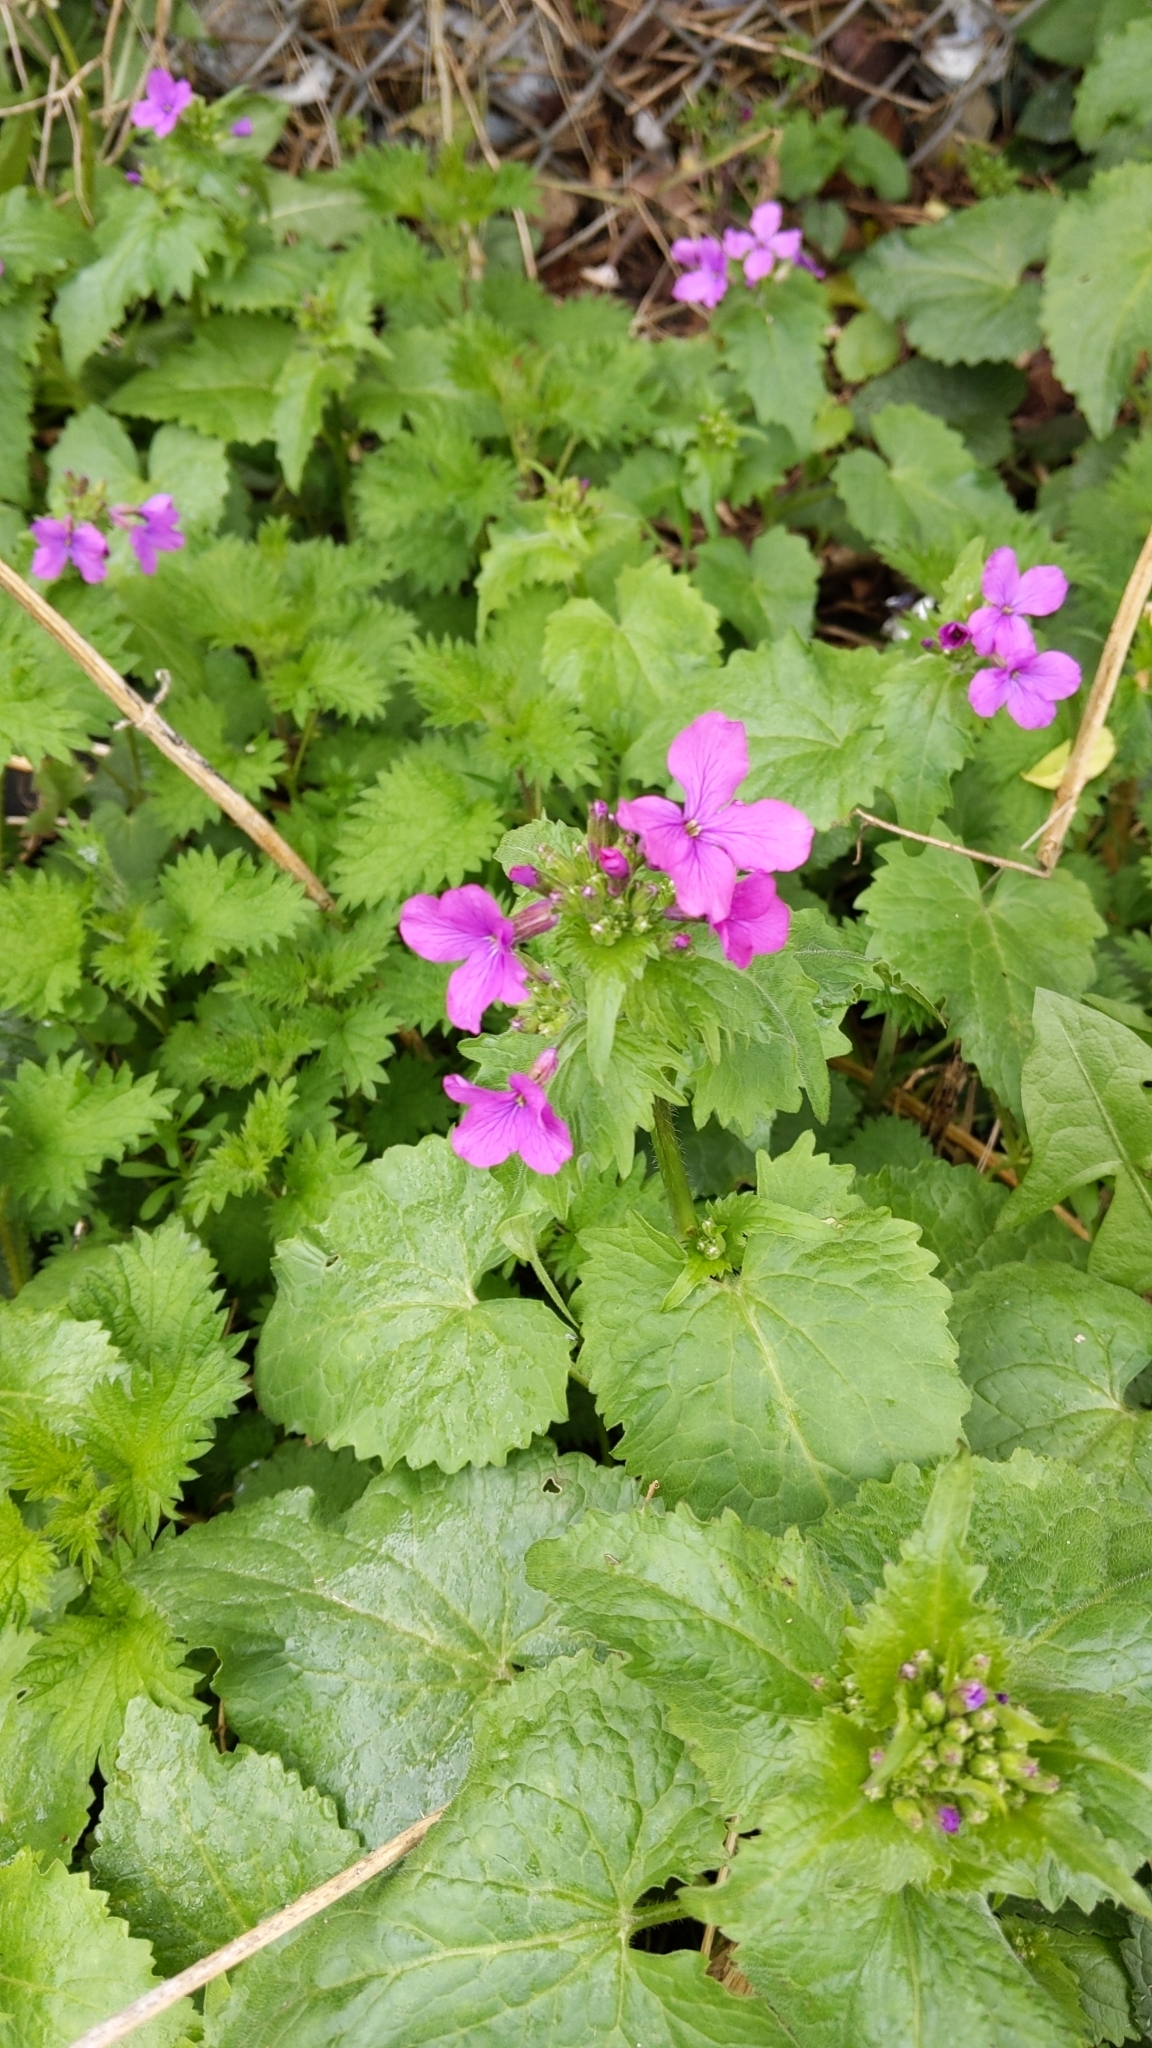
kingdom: Plantae
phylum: Tracheophyta
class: Magnoliopsida
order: Brassicales
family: Brassicaceae
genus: Lunaria
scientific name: Lunaria annua
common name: Honesty
